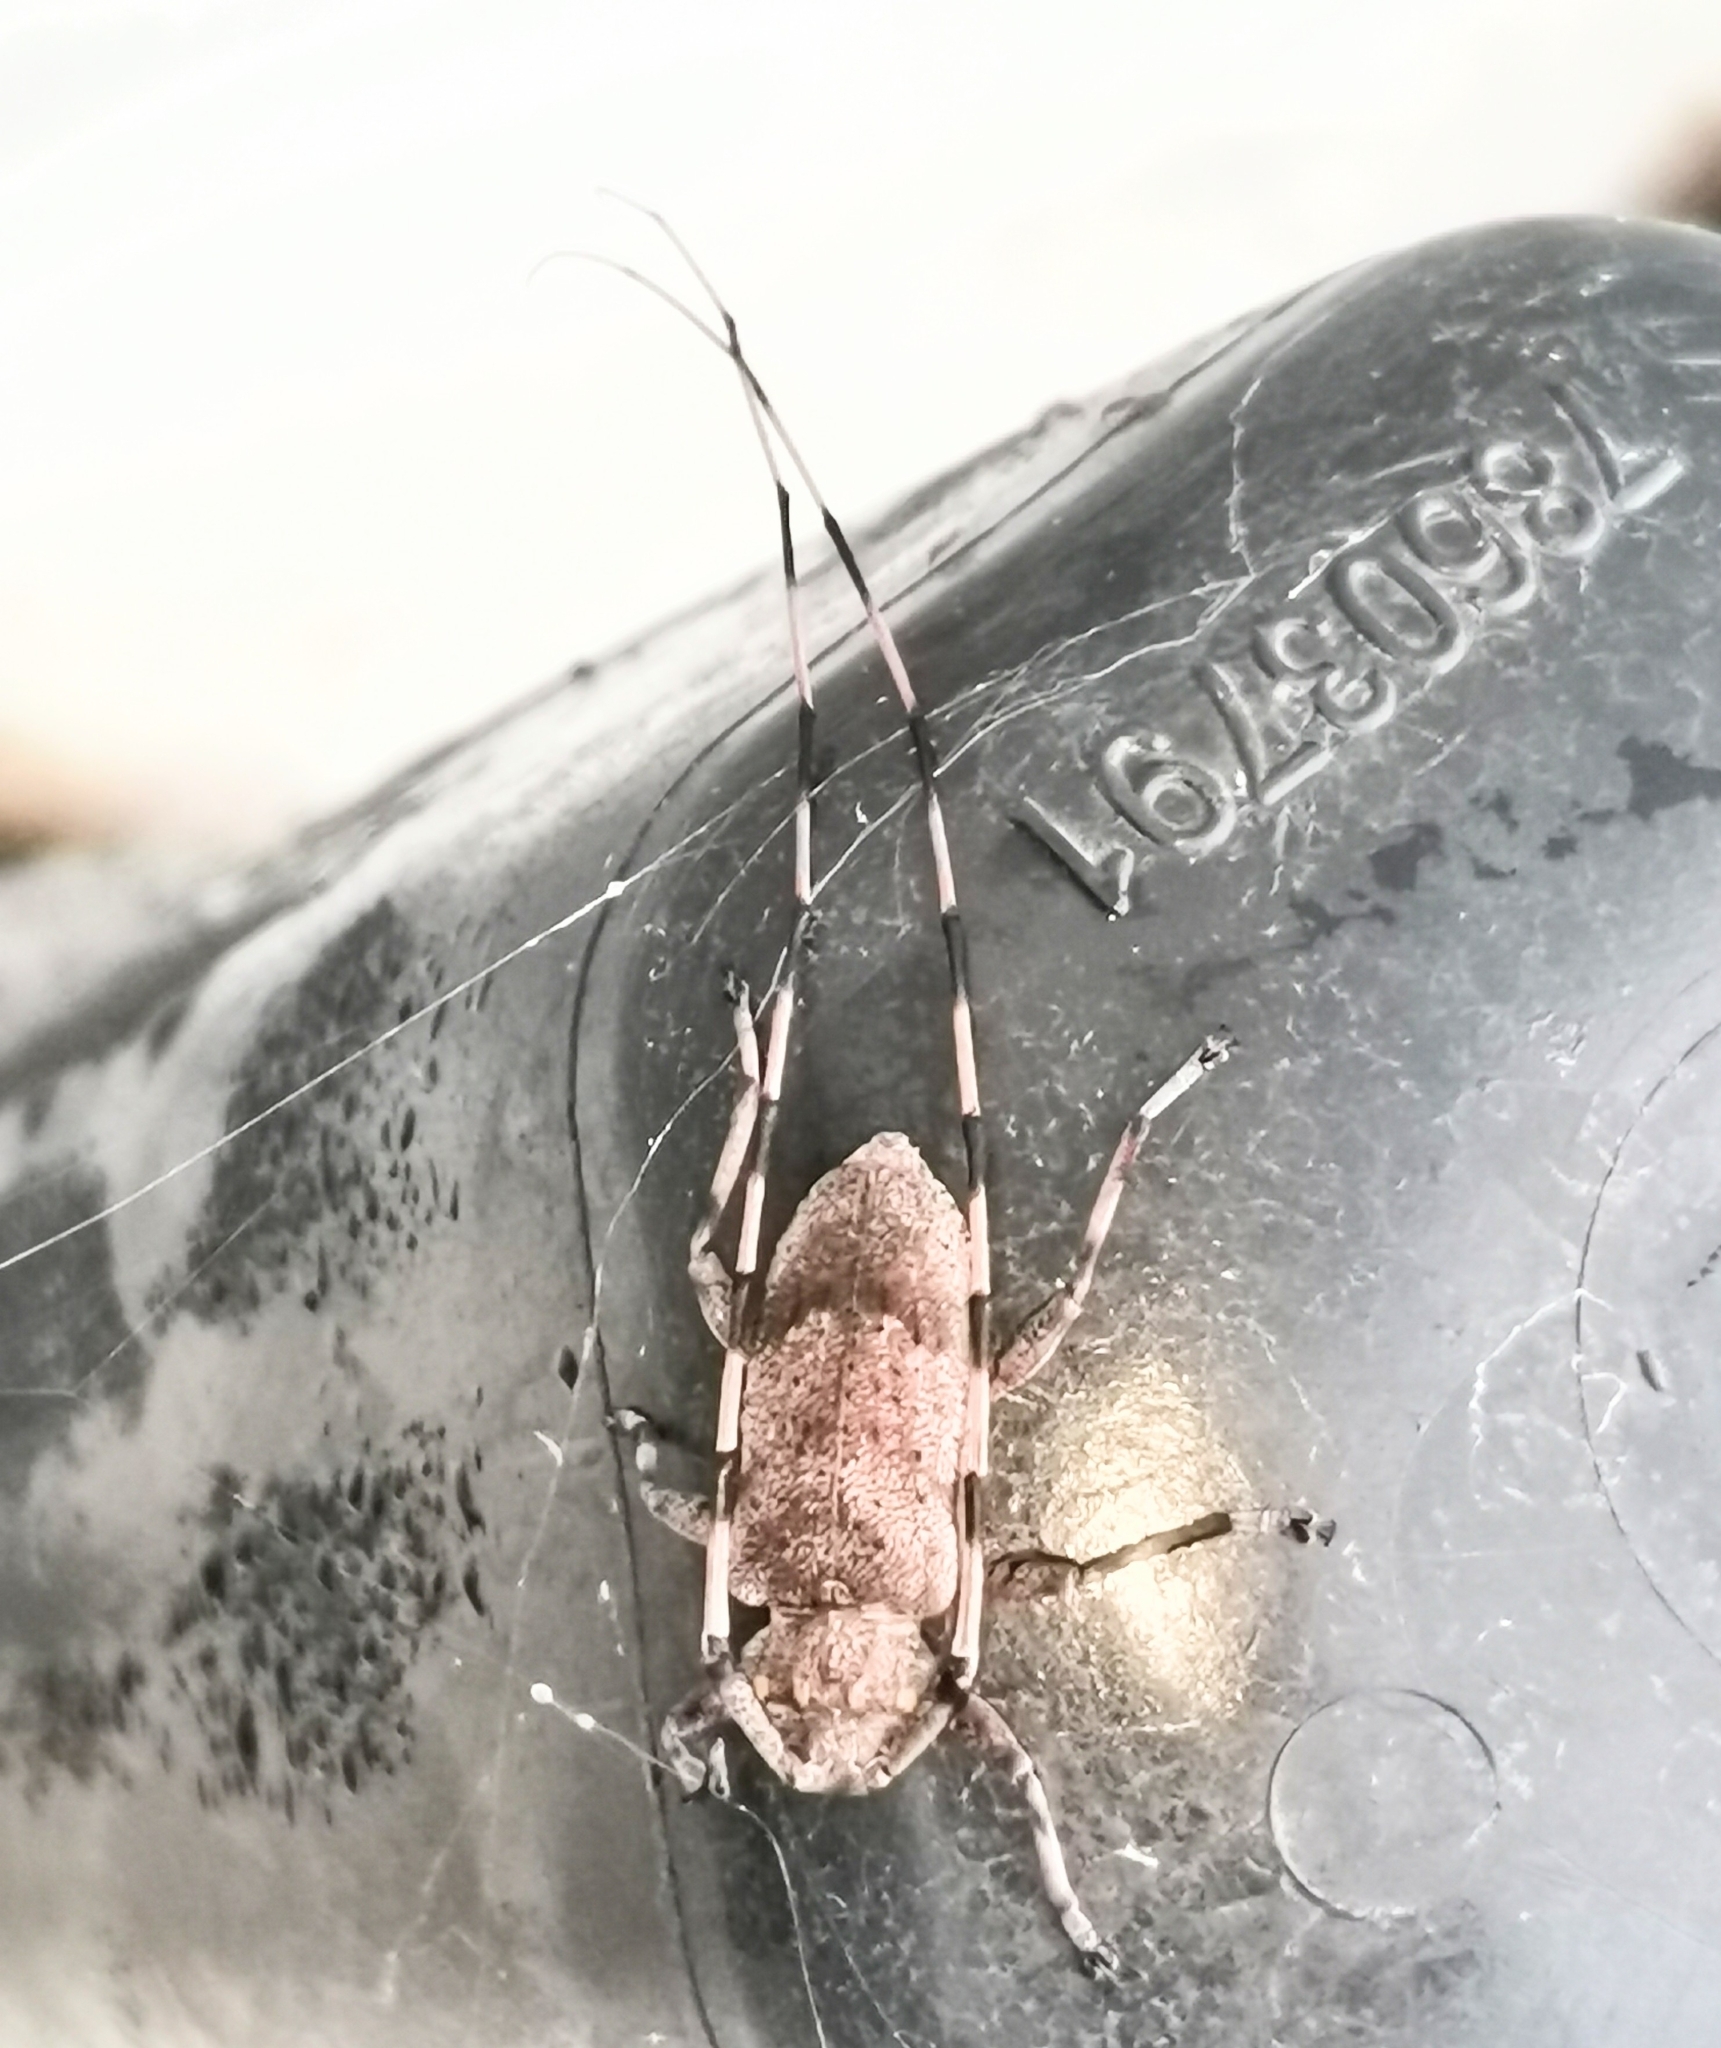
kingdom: Animalia
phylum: Arthropoda
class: Insecta
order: Coleoptera
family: Cerambycidae
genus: Acanthocinus
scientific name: Acanthocinus aedilis
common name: Timberman beetle
